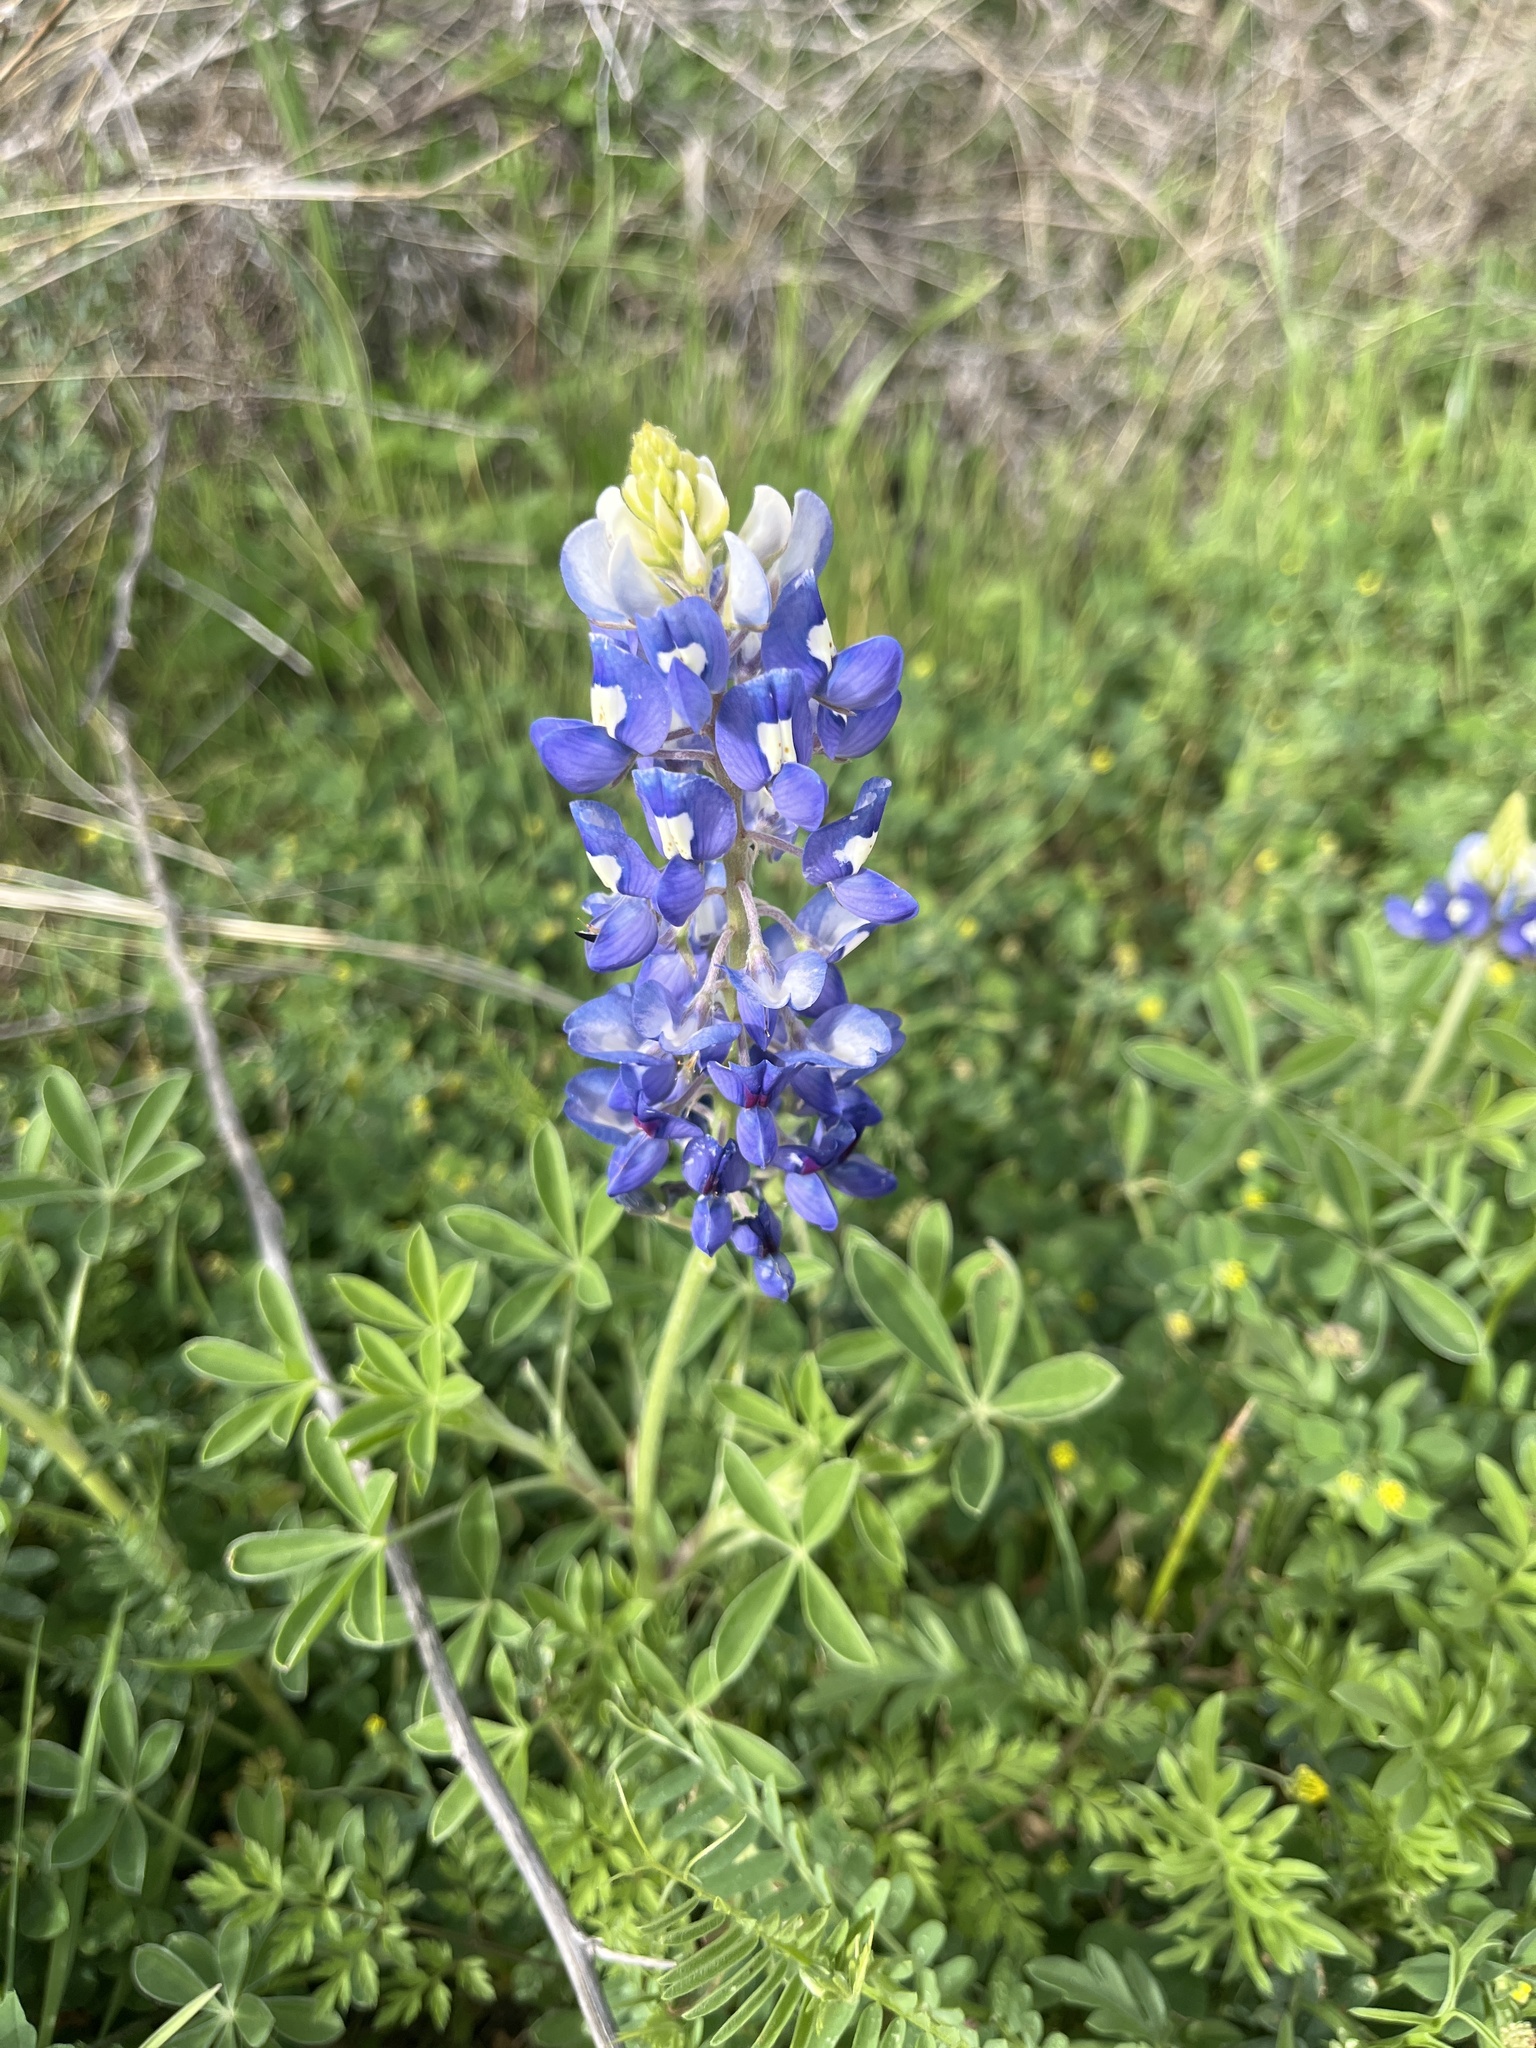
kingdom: Plantae
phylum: Tracheophyta
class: Magnoliopsida
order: Fabales
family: Fabaceae
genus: Lupinus
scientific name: Lupinus texensis
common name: Texas bluebonnet
